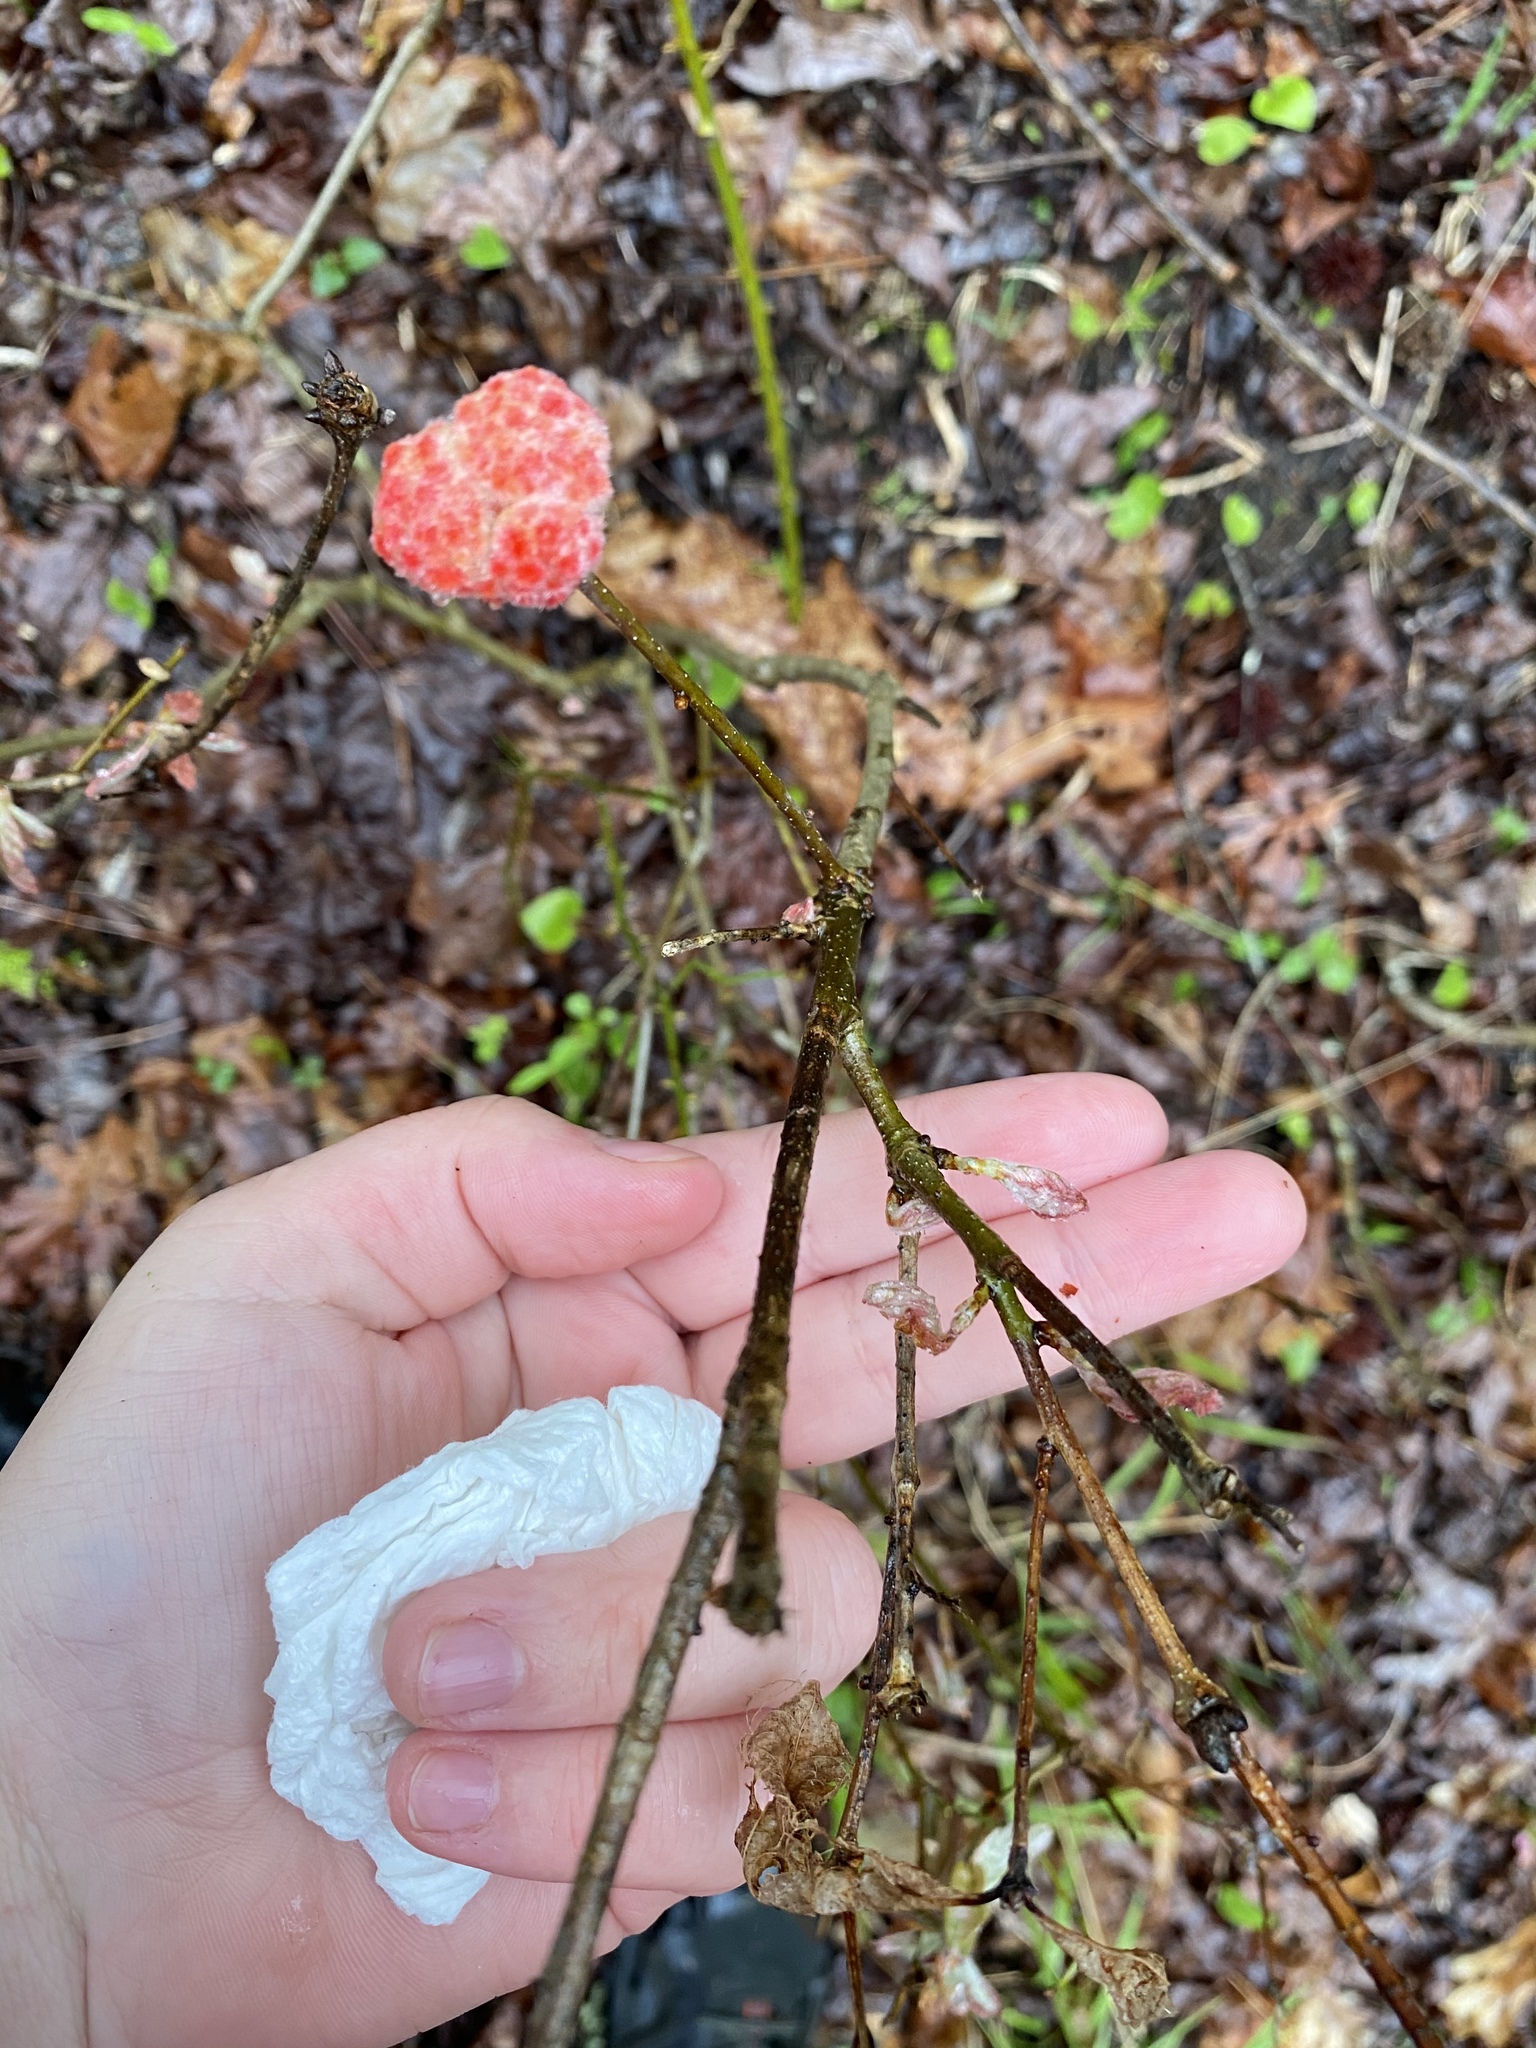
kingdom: Animalia
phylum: Arthropoda
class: Insecta
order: Hymenoptera
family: Cynipidae
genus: Callirhytis
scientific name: Callirhytis
